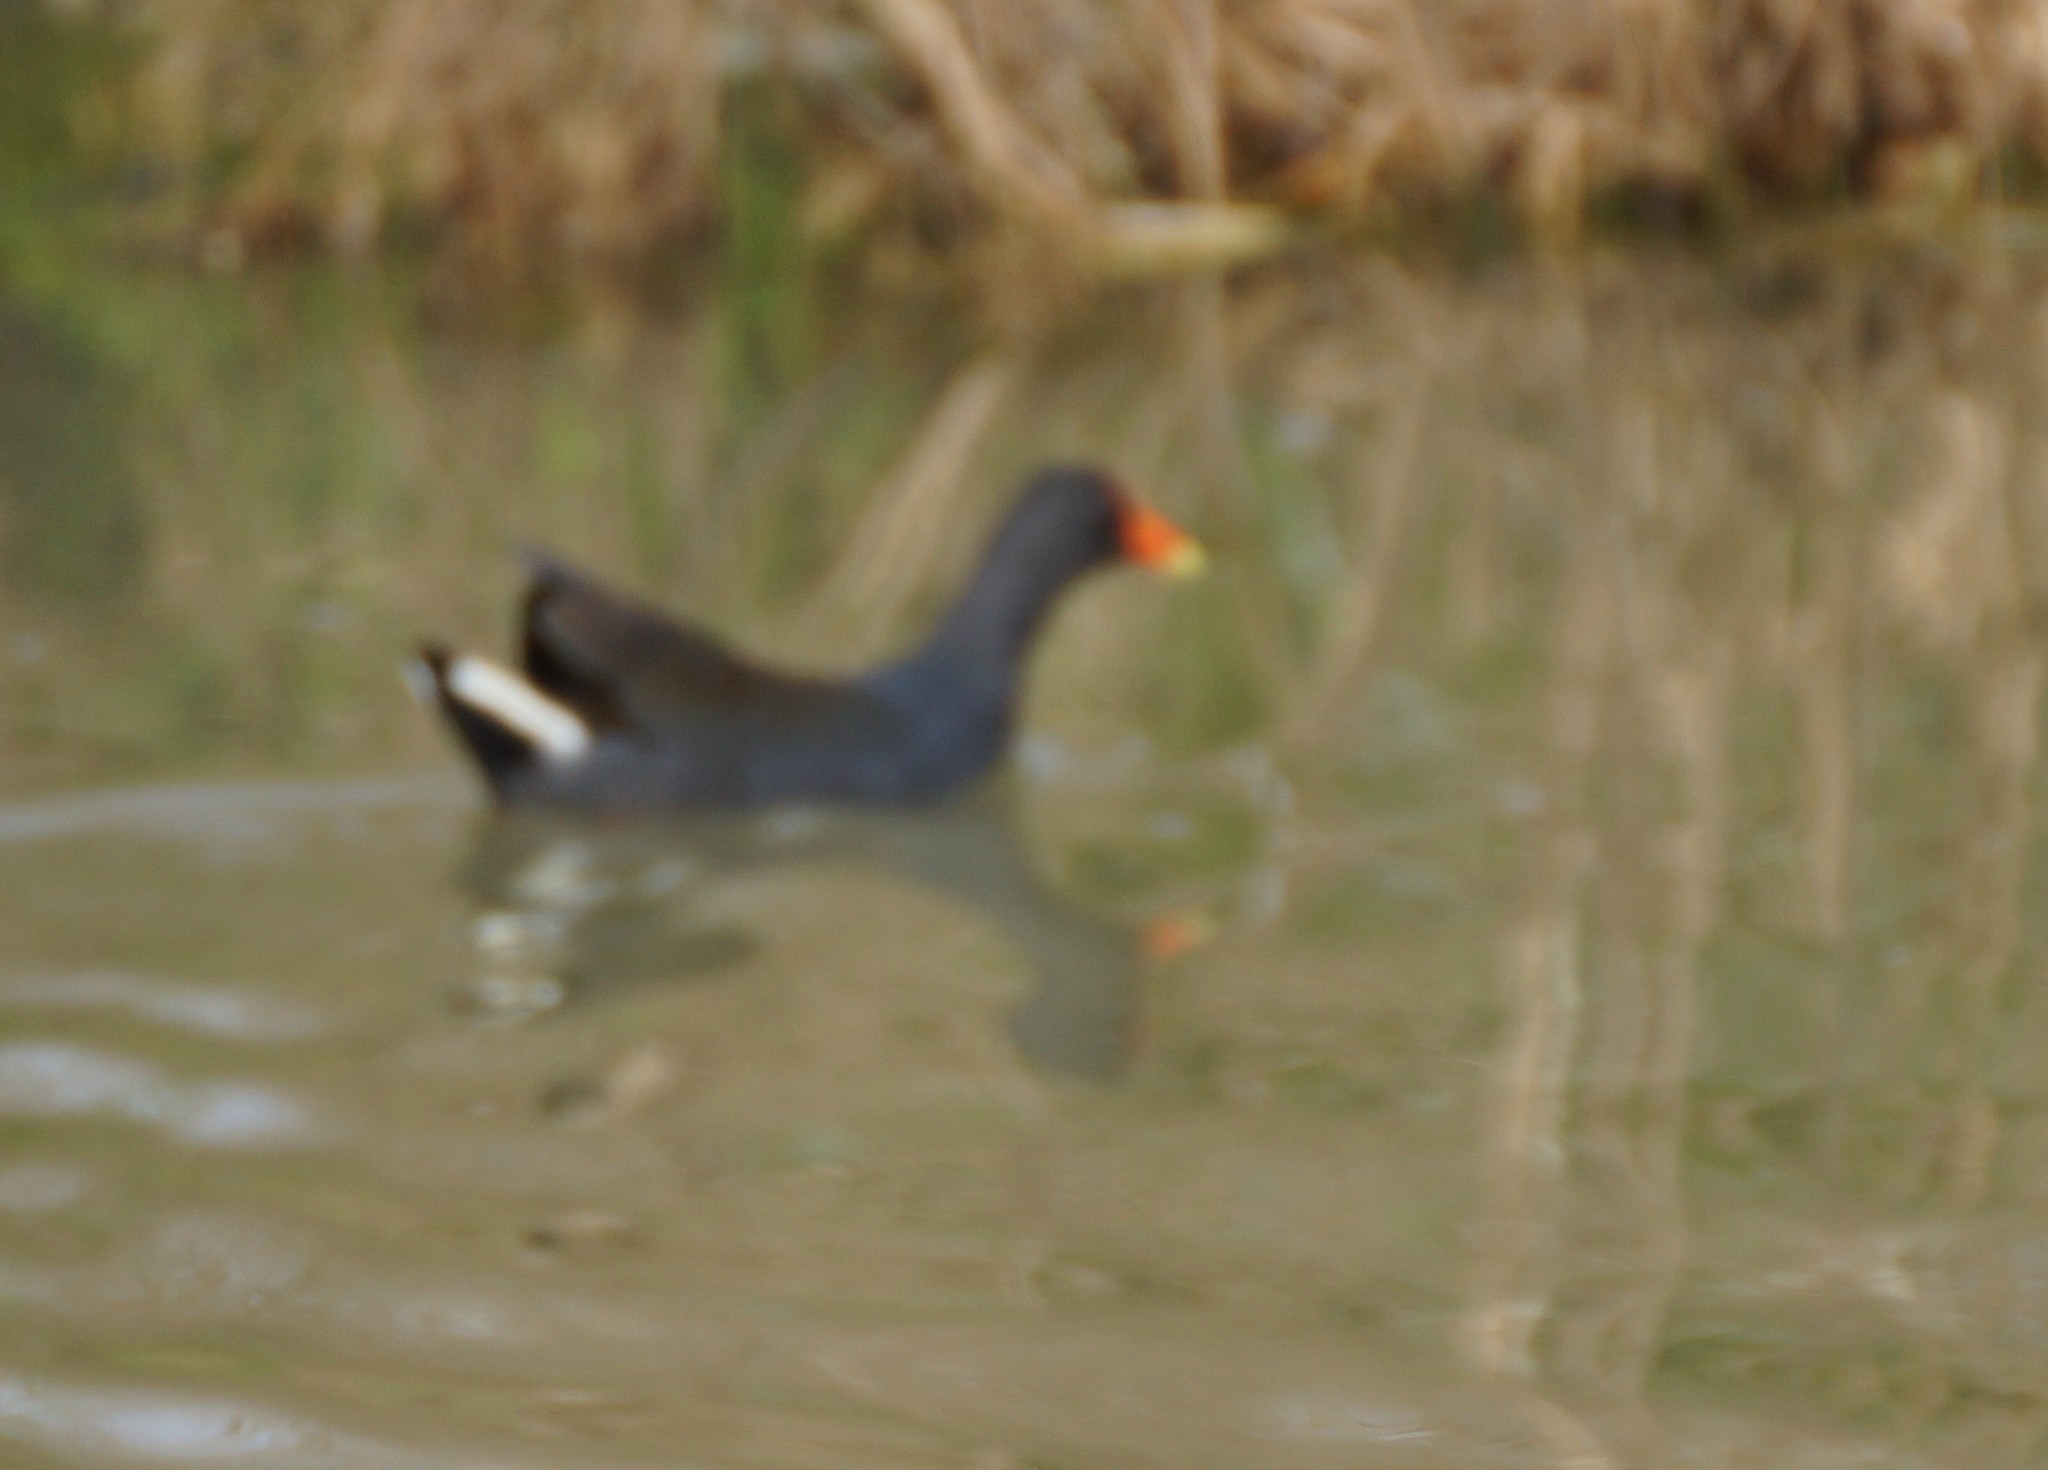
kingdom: Animalia
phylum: Chordata
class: Aves
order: Gruiformes
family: Rallidae
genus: Gallinula
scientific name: Gallinula tenebrosa
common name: Dusky moorhen
